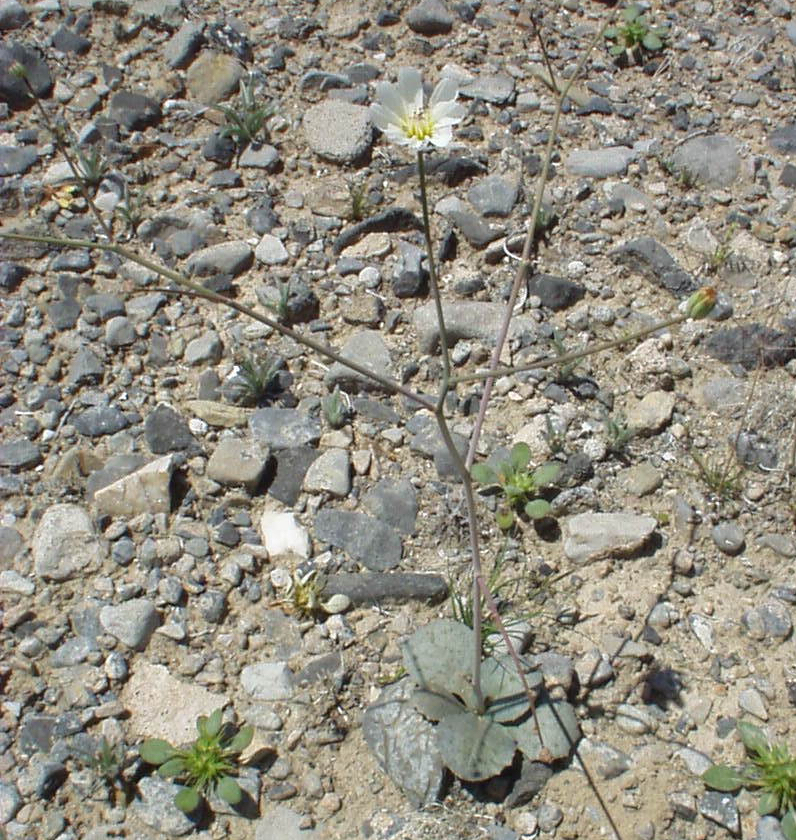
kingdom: Plantae
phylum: Tracheophyta
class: Magnoliopsida
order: Asterales
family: Asteraceae
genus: Atrichoseris
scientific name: Atrichoseris platyphylla
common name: Tobaccoweed
